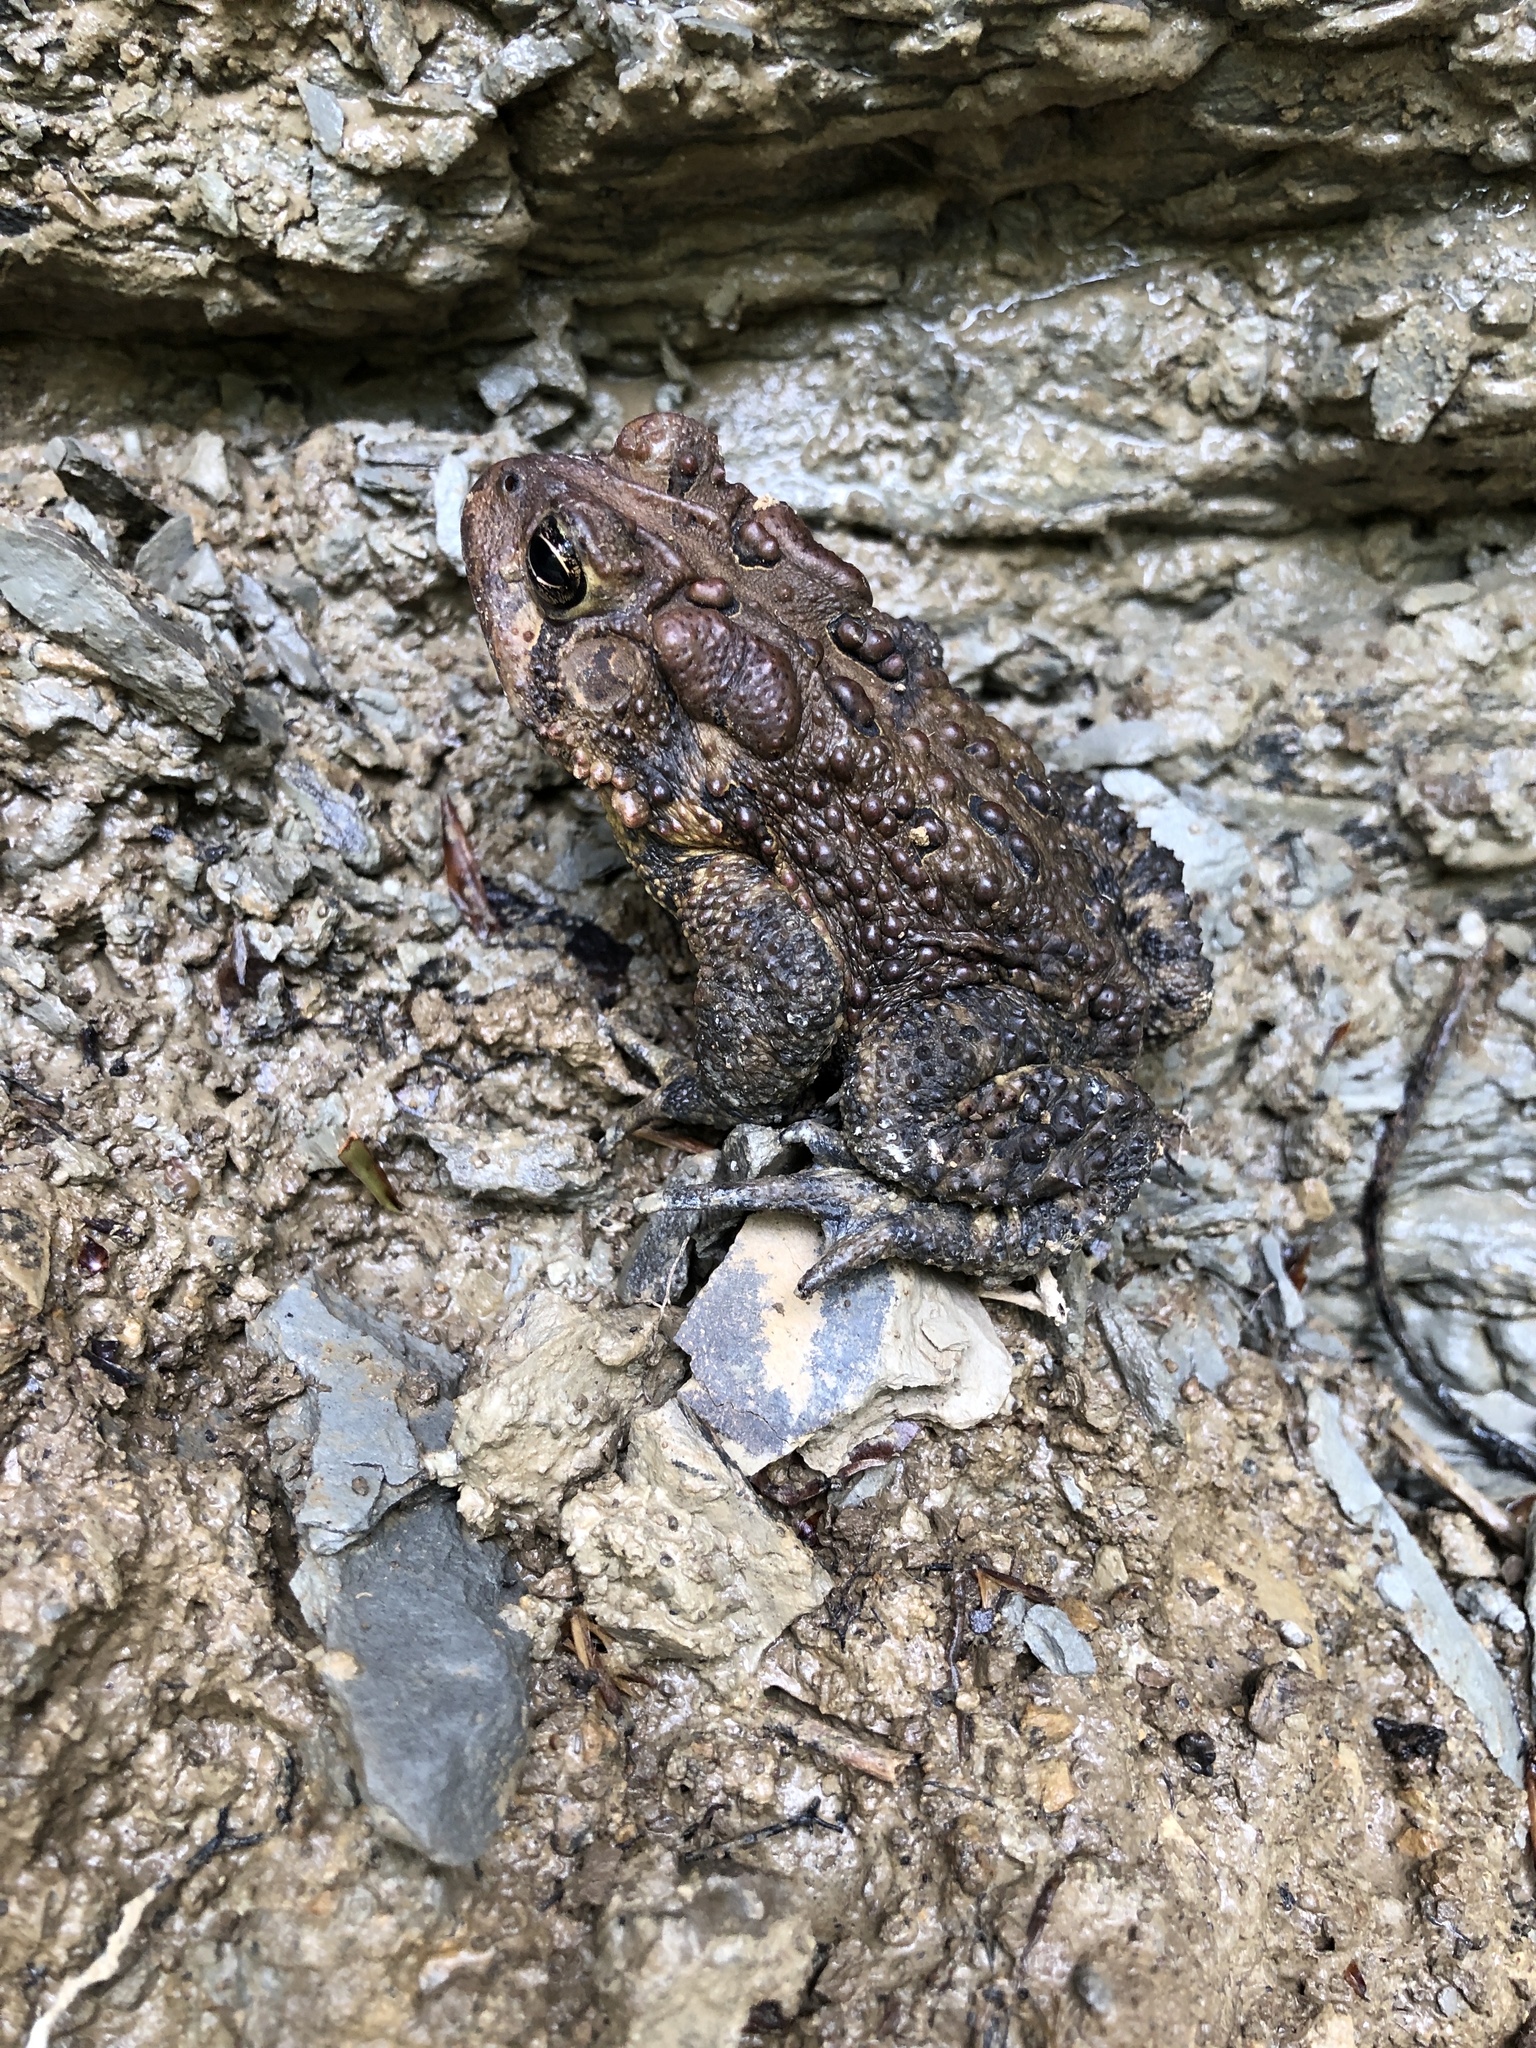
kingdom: Animalia
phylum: Chordata
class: Amphibia
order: Anura
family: Bufonidae
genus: Anaxyrus
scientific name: Anaxyrus americanus
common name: American toad
